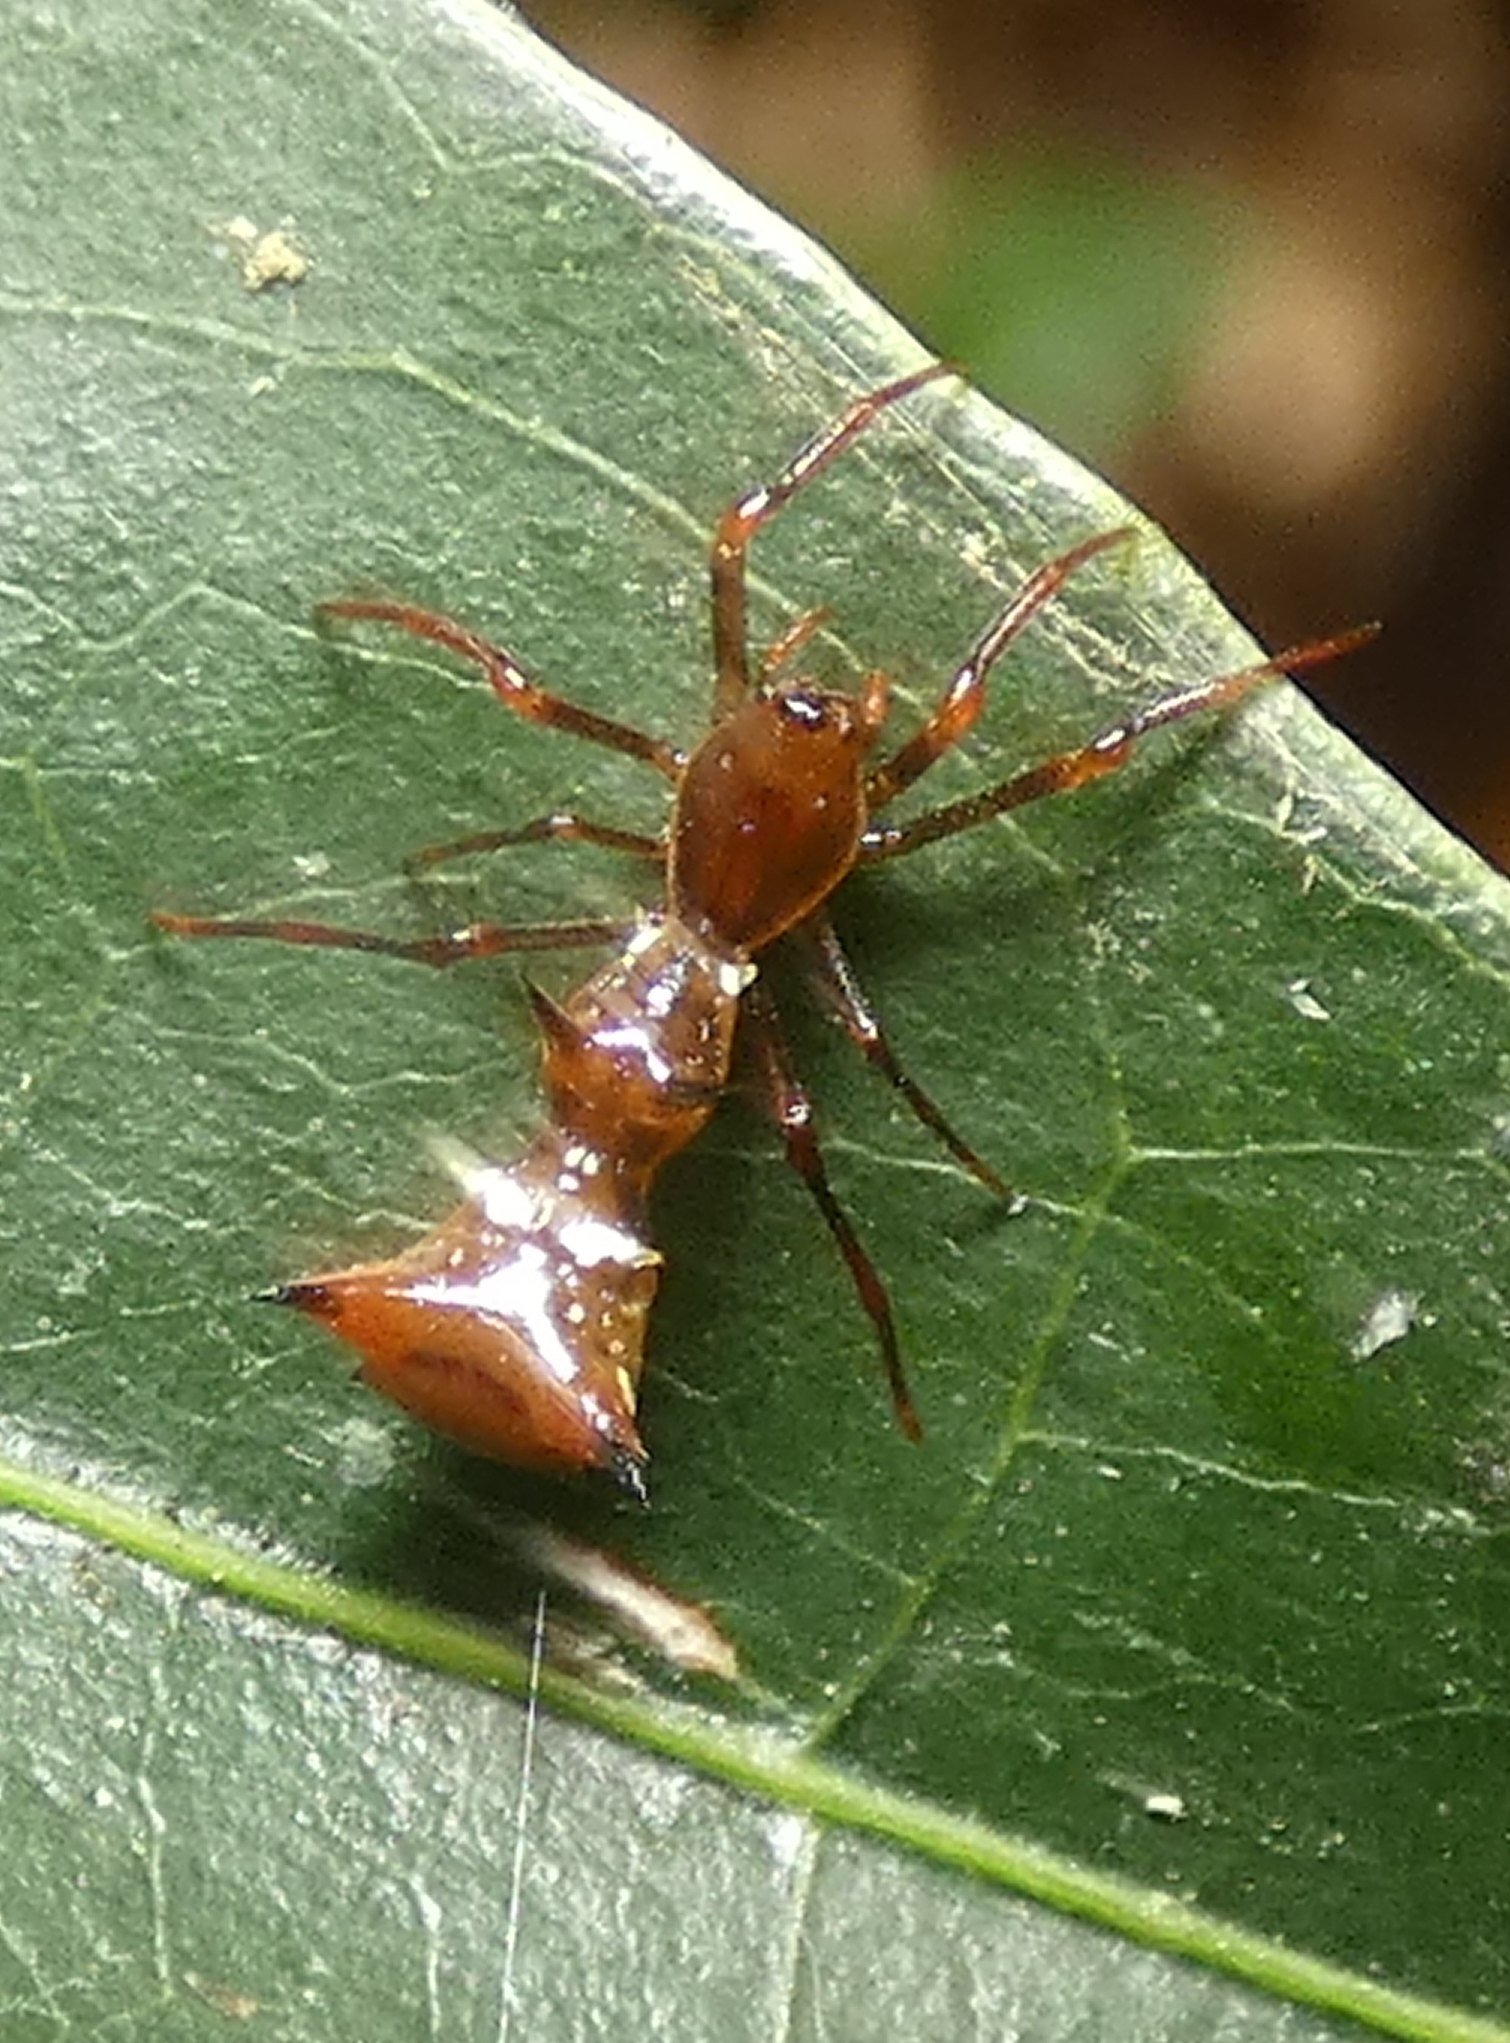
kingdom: Animalia
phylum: Arthropoda
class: Arachnida
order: Araneae
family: Araneidae
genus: Micrathena
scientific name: Micrathena schreibersi
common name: Orb weavers
